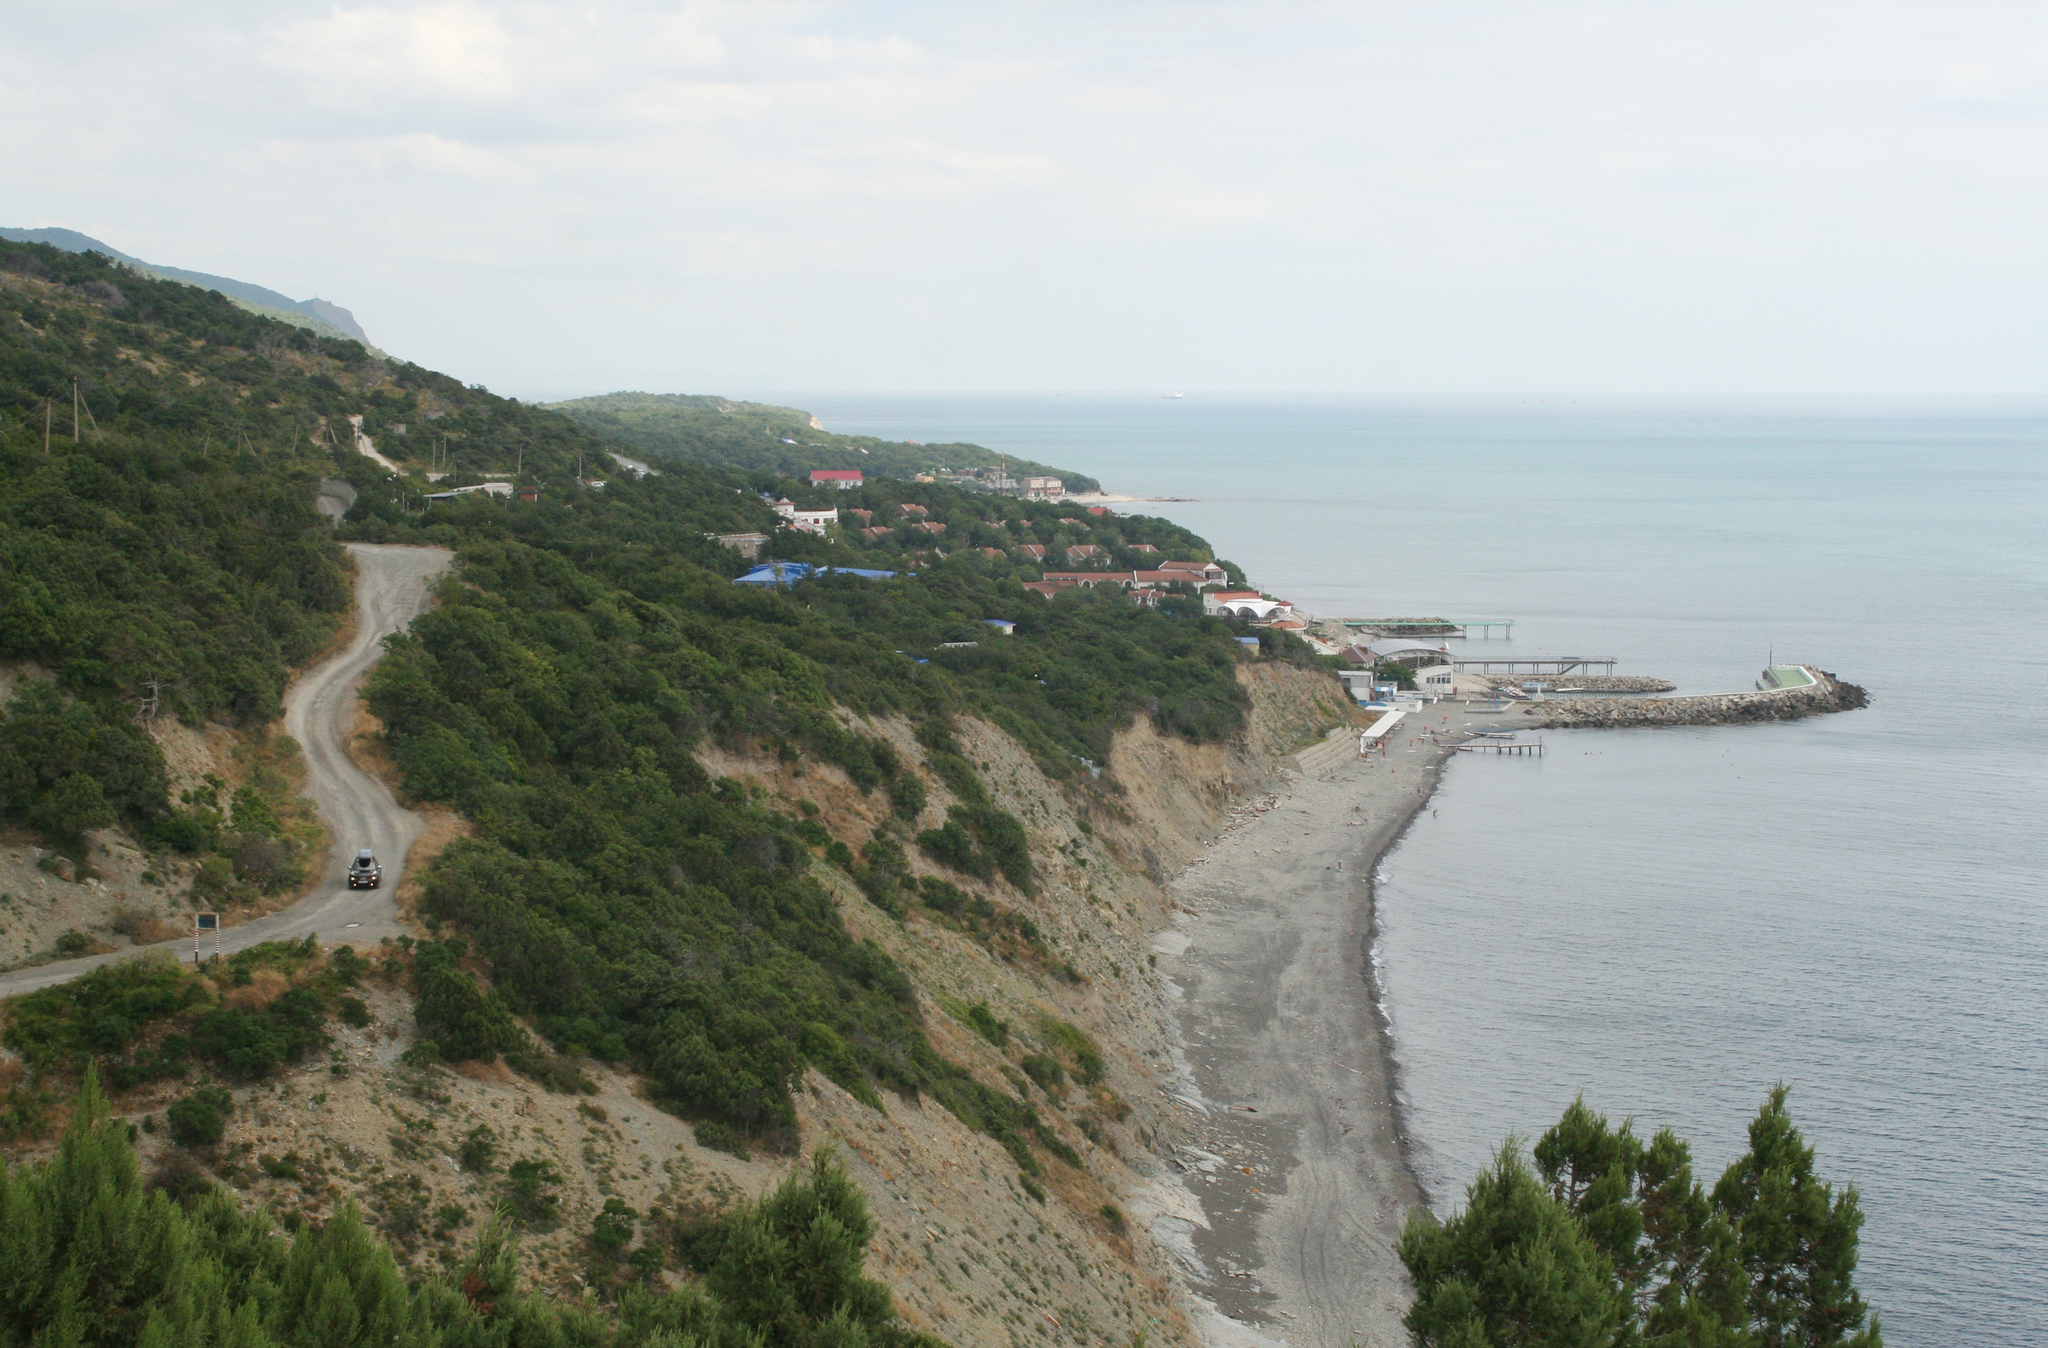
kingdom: Plantae
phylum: Tracheophyta
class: Pinopsida
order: Pinales
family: Cupressaceae
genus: Juniperus
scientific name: Juniperus excelsa
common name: Crimean juniper
